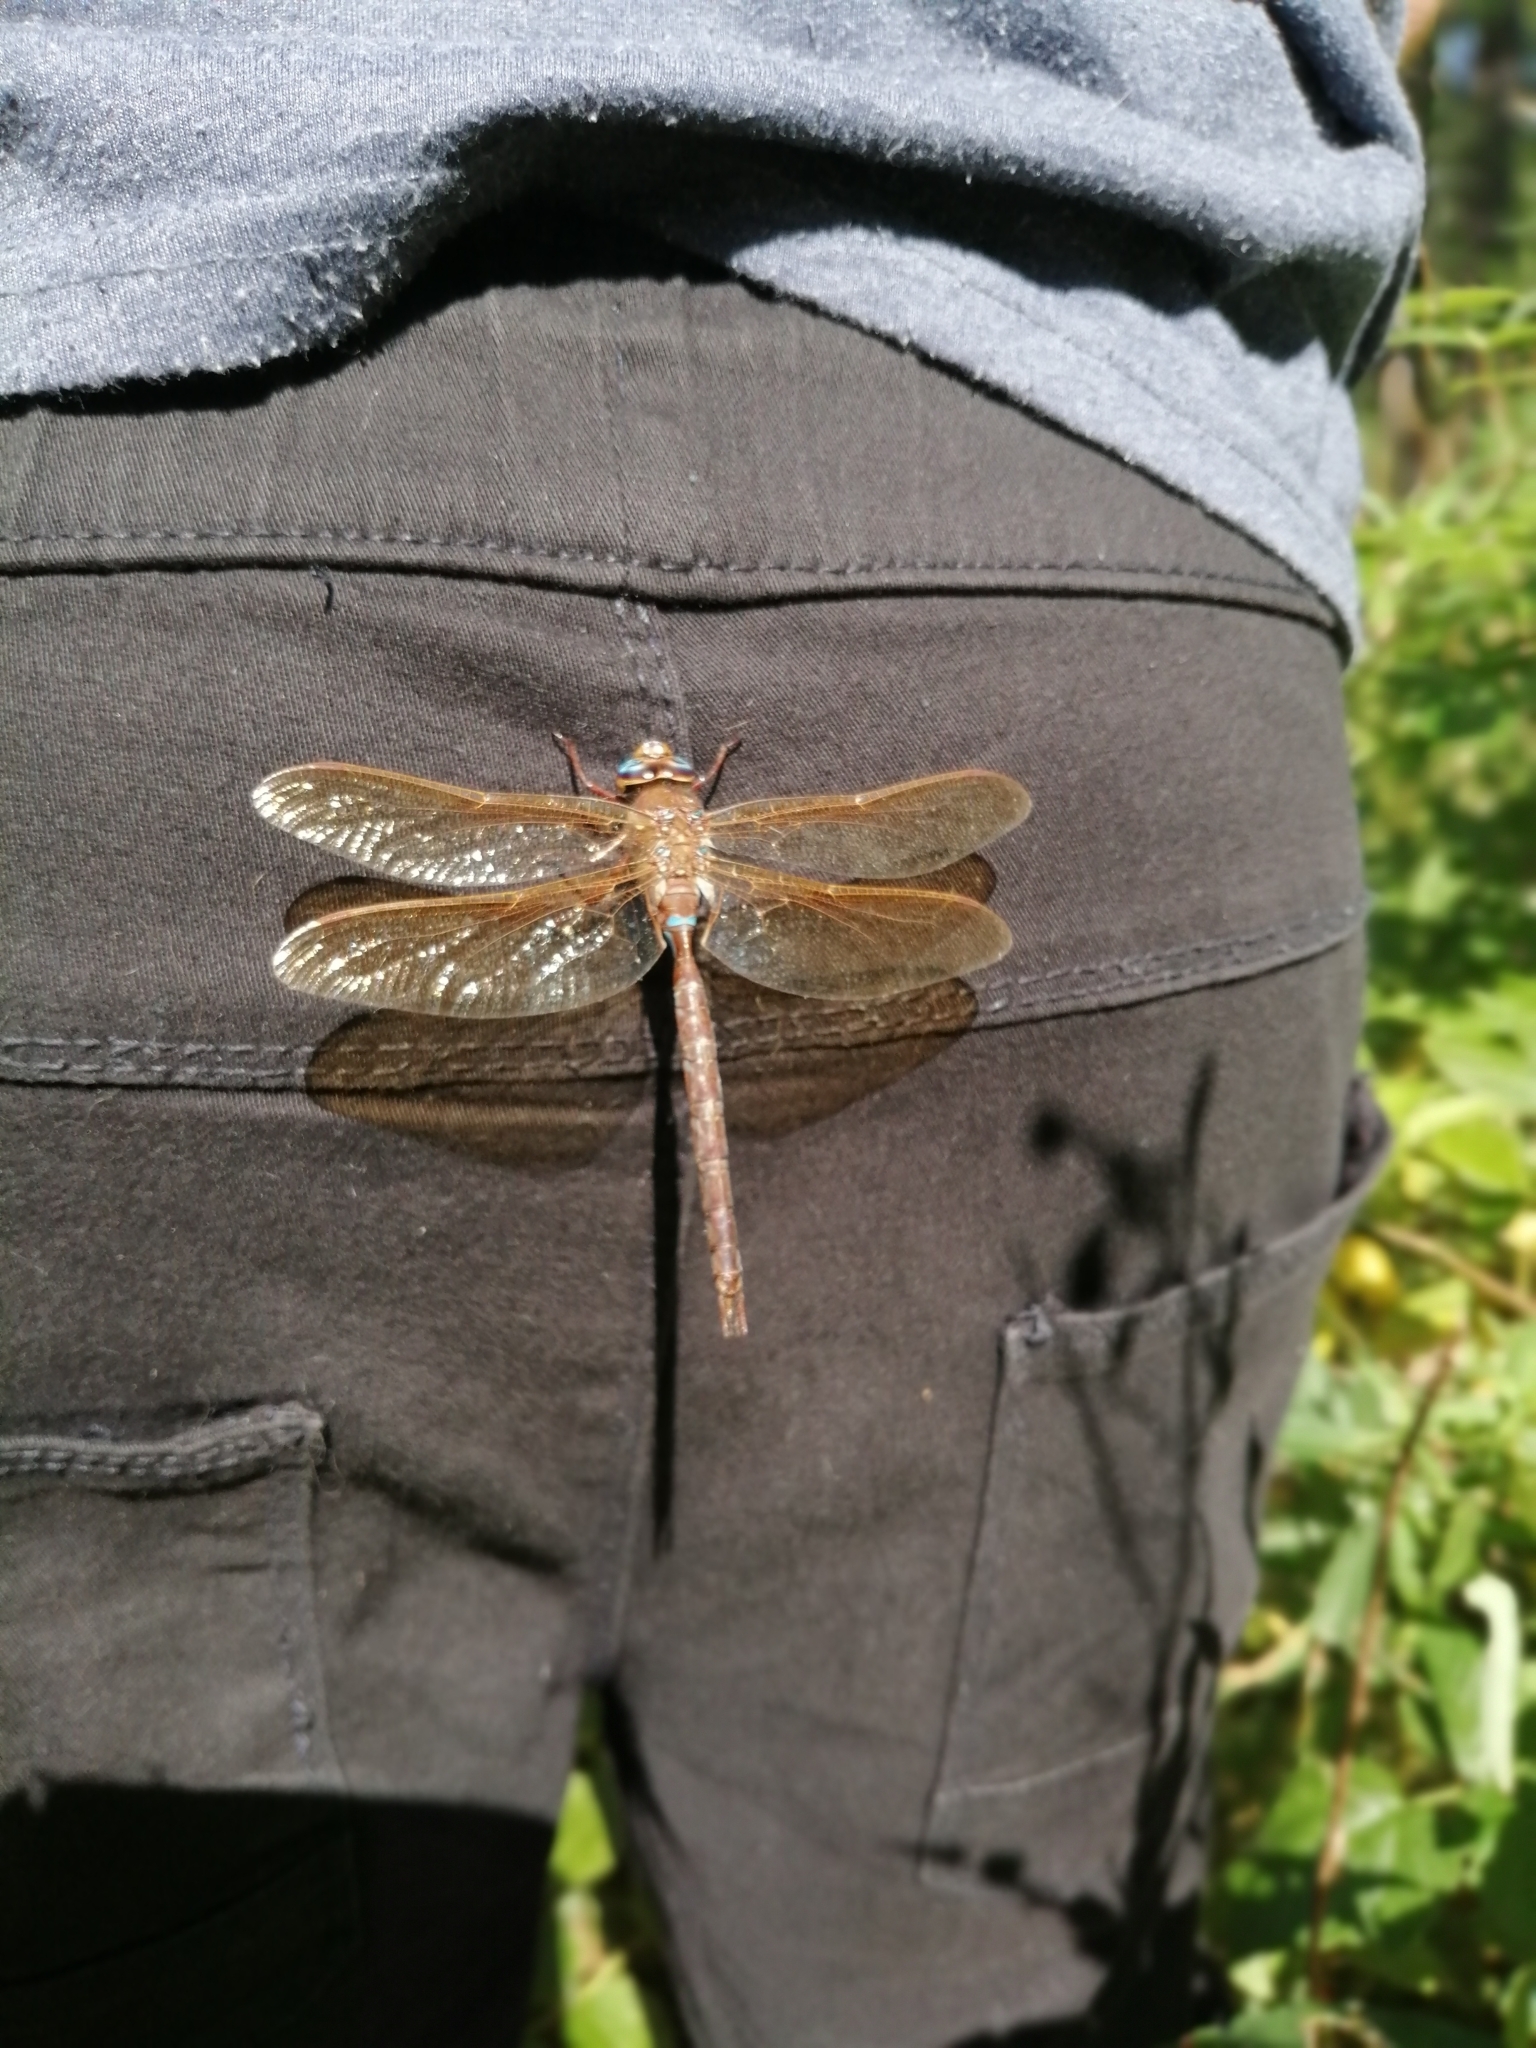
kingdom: Animalia
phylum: Arthropoda
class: Insecta
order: Odonata
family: Aeshnidae
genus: Aeshna
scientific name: Aeshna grandis
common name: Brown hawker
